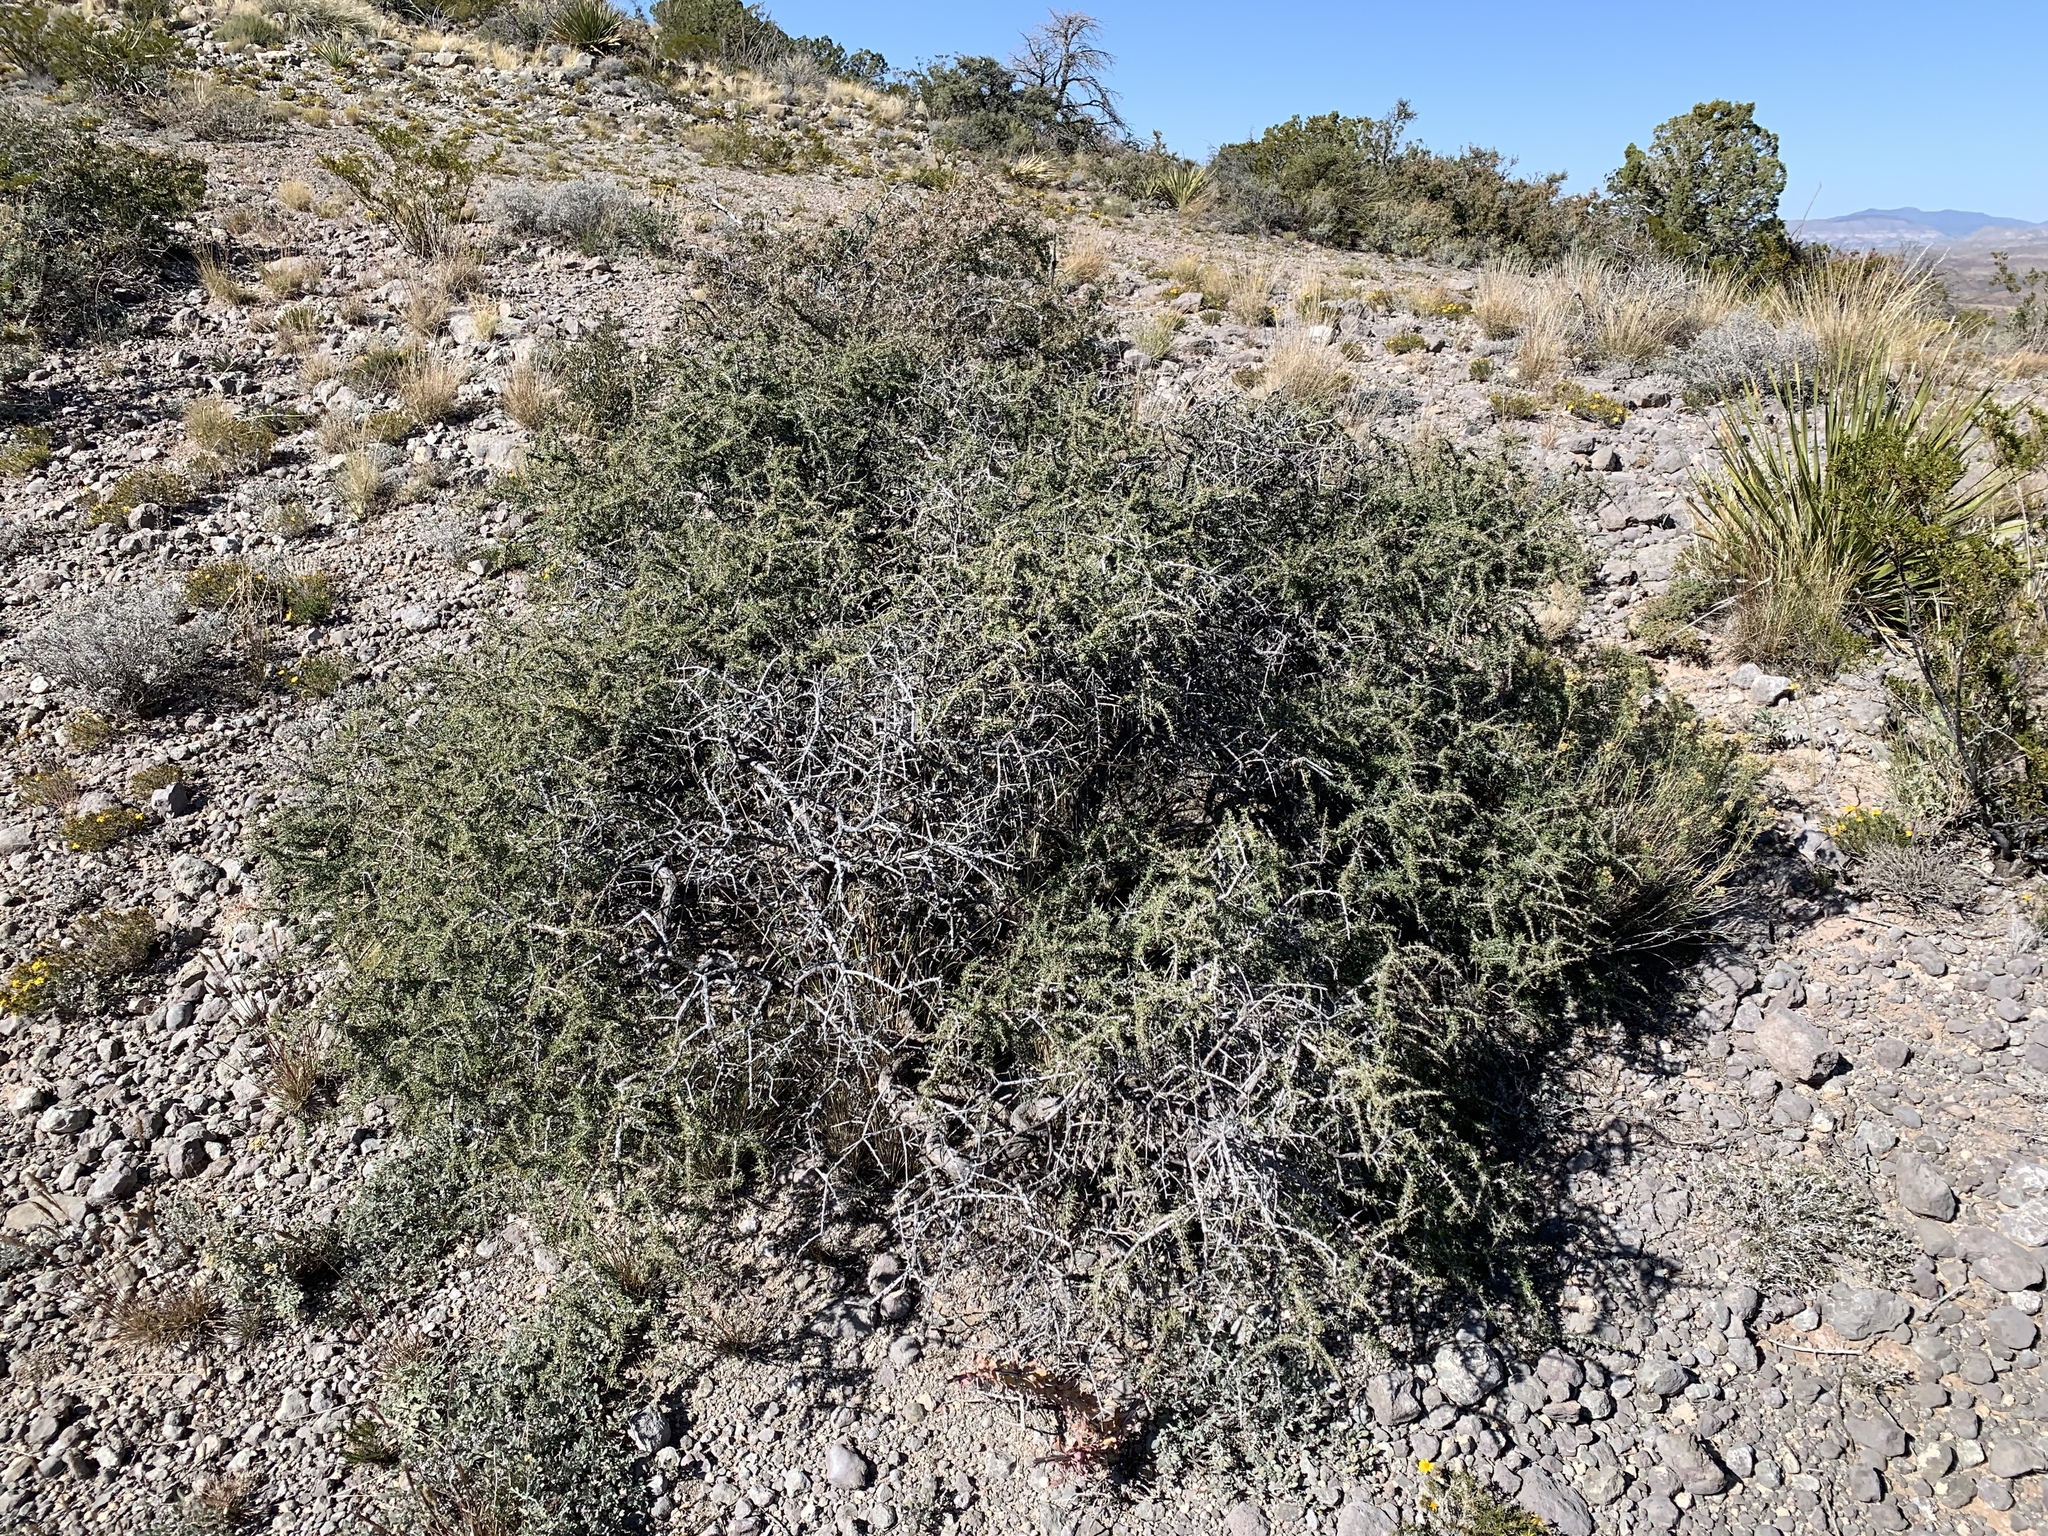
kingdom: Plantae
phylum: Tracheophyta
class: Magnoliopsida
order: Rosales
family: Rhamnaceae
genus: Condalia
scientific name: Condalia warnockii
